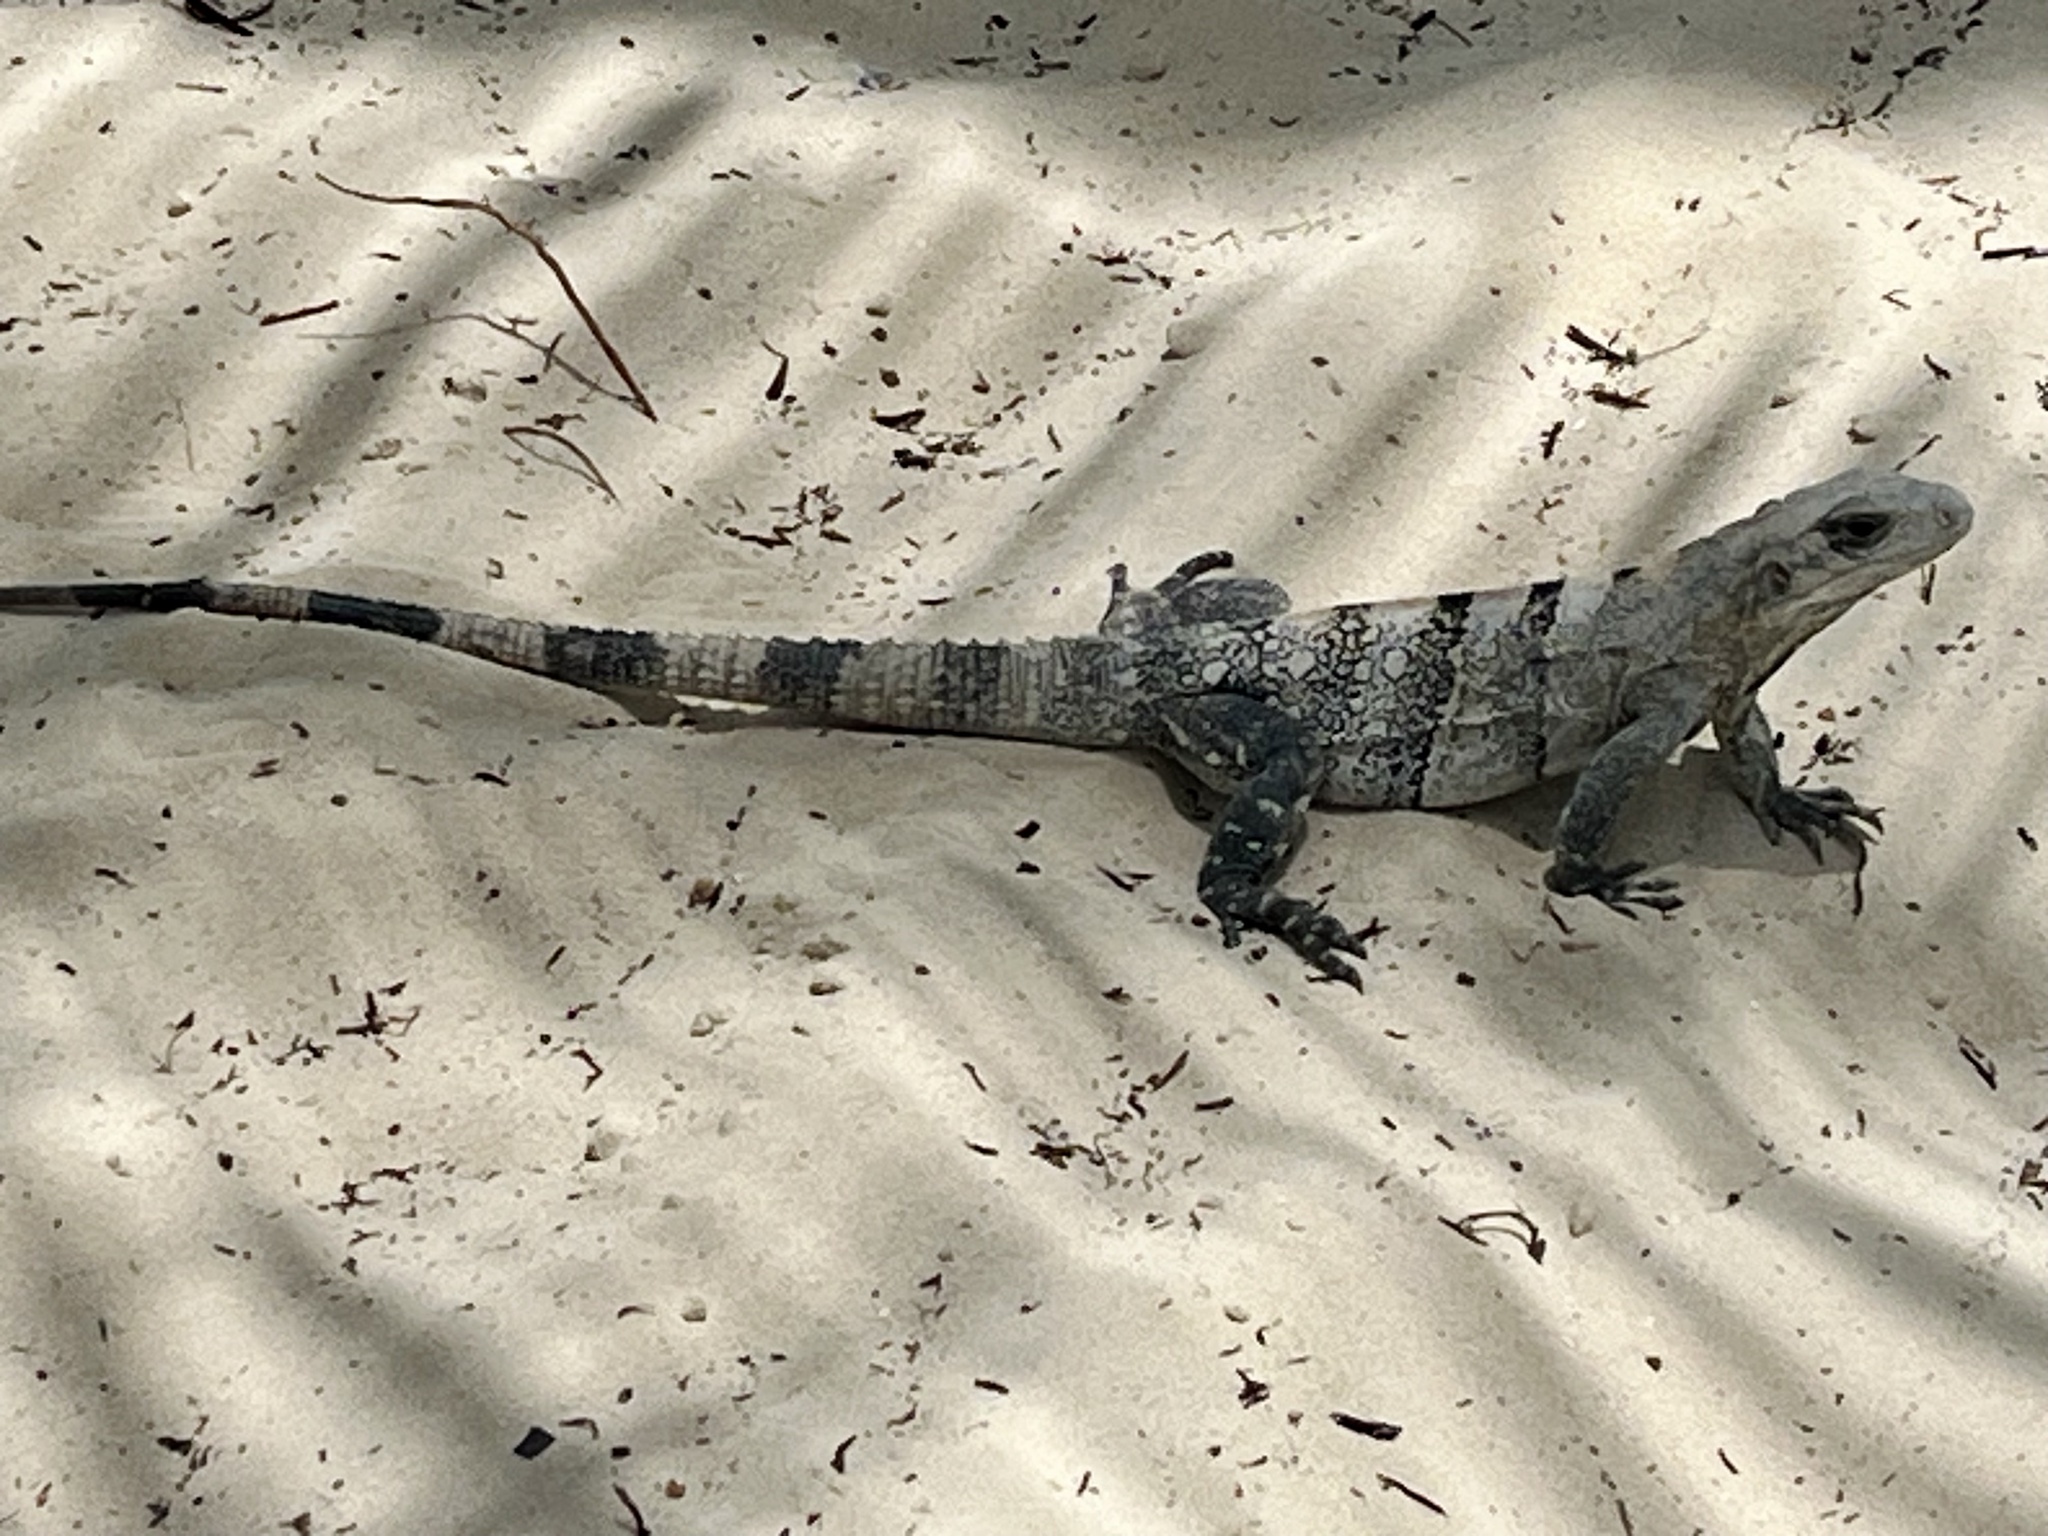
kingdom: Animalia
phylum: Chordata
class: Squamata
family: Iguanidae
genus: Ctenosaura
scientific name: Ctenosaura similis
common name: Black spiny-tailed iguana
